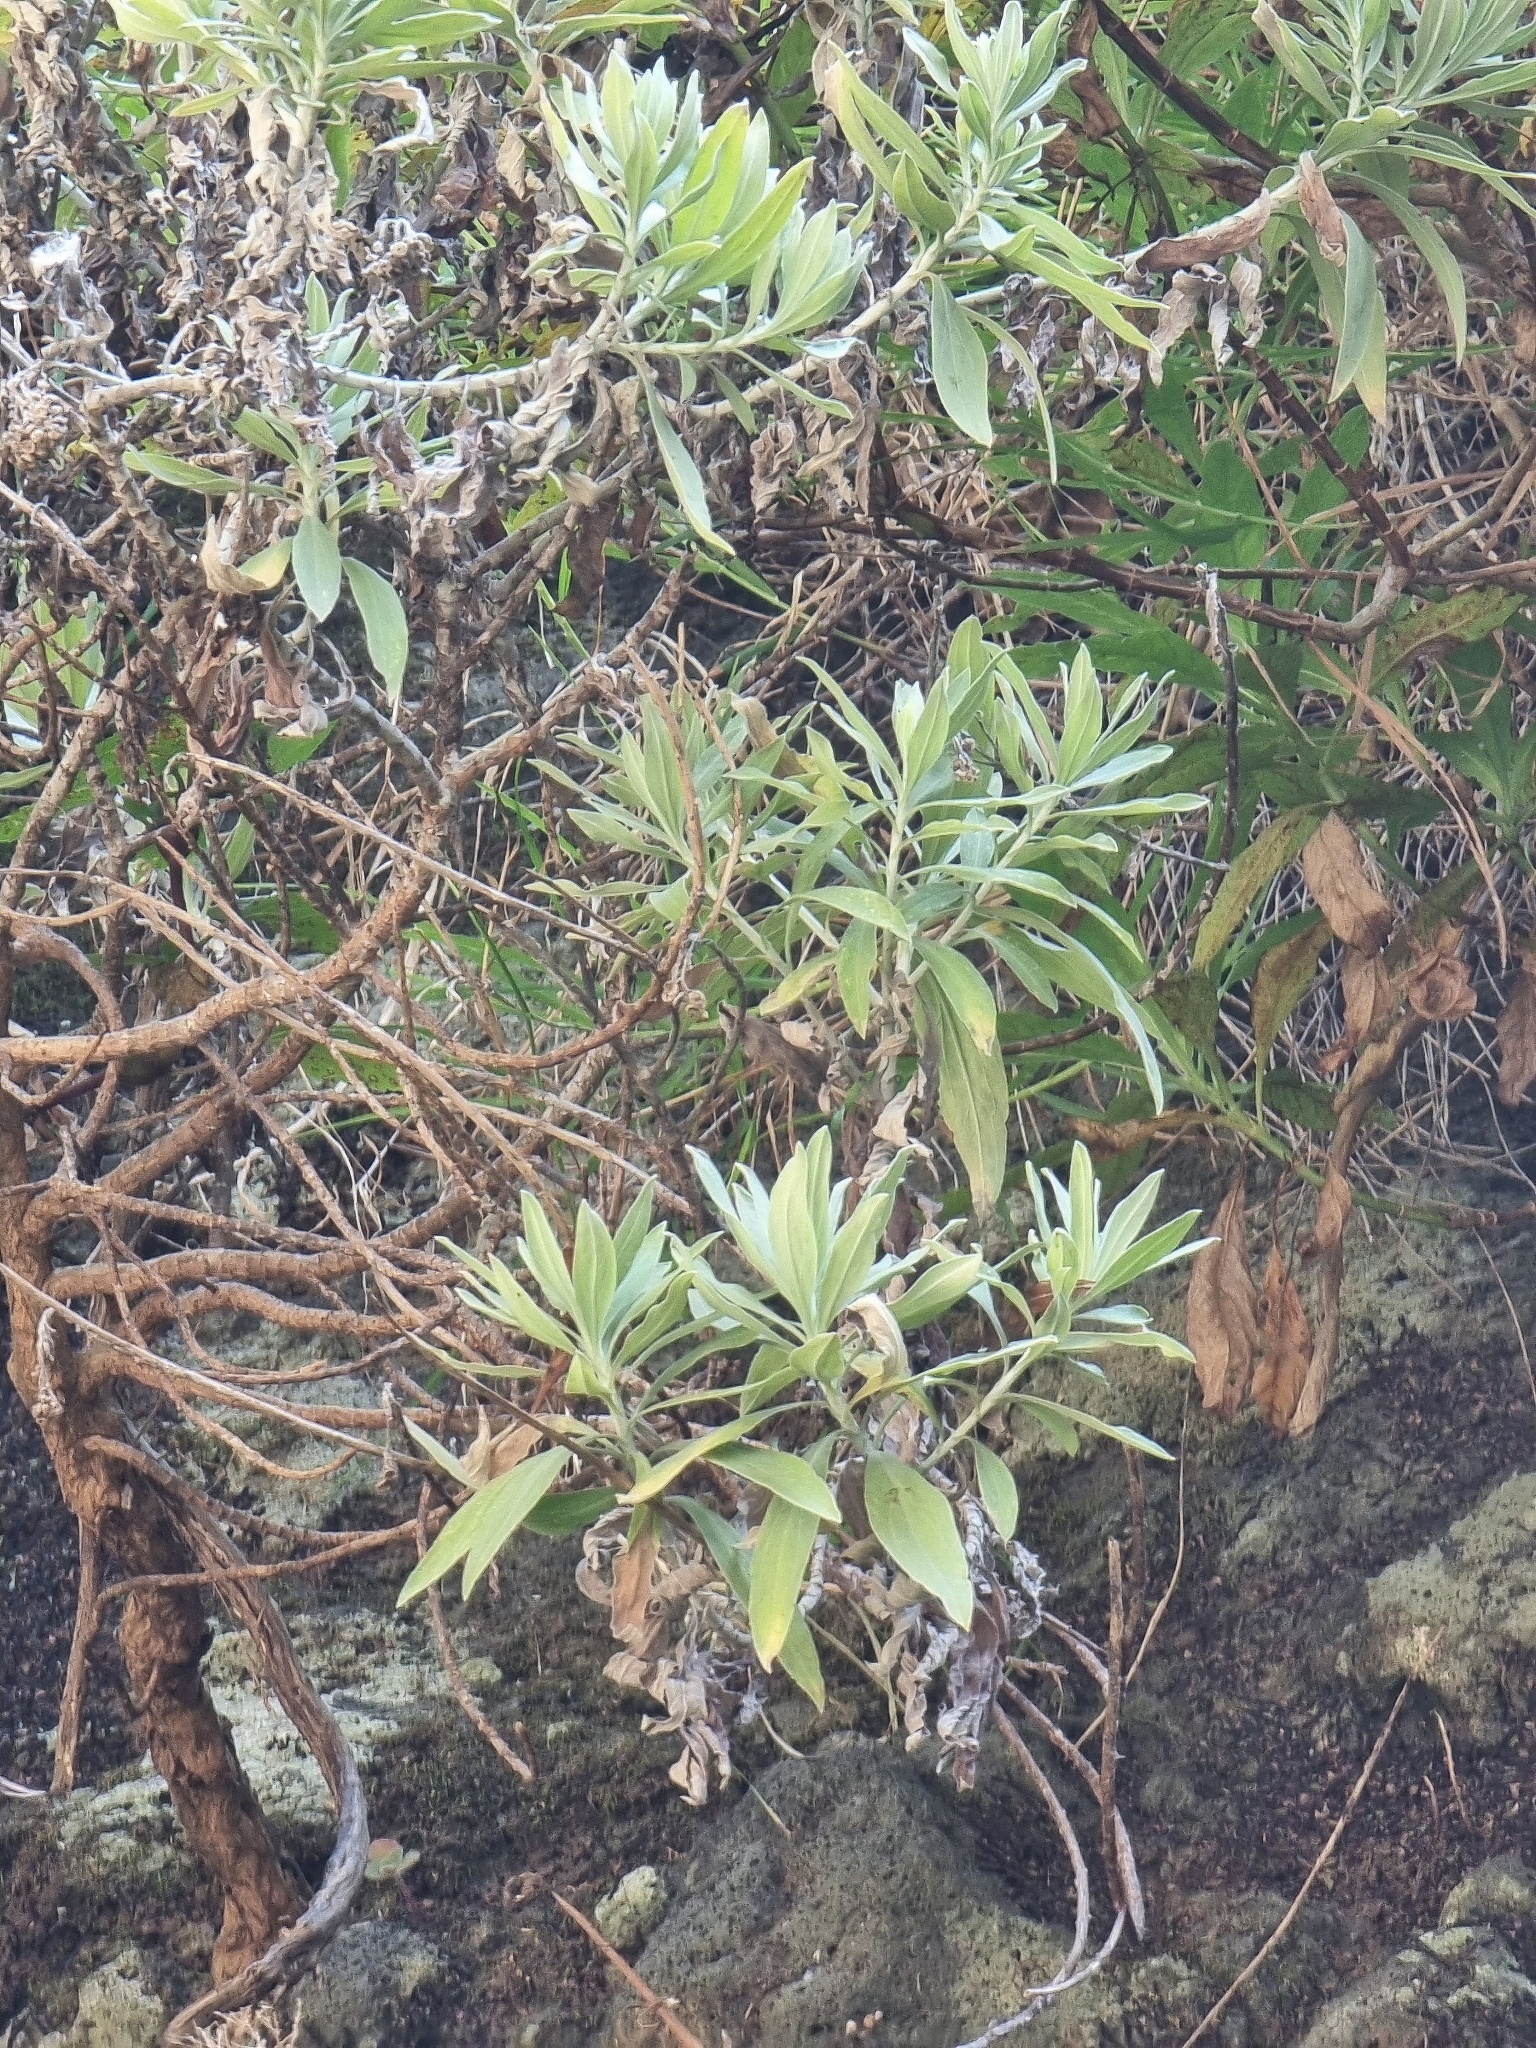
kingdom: Plantae
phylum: Tracheophyta
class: Magnoliopsida
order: Asterales
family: Asteraceae
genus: Helichrysum
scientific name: Helichrysum melaleucum
